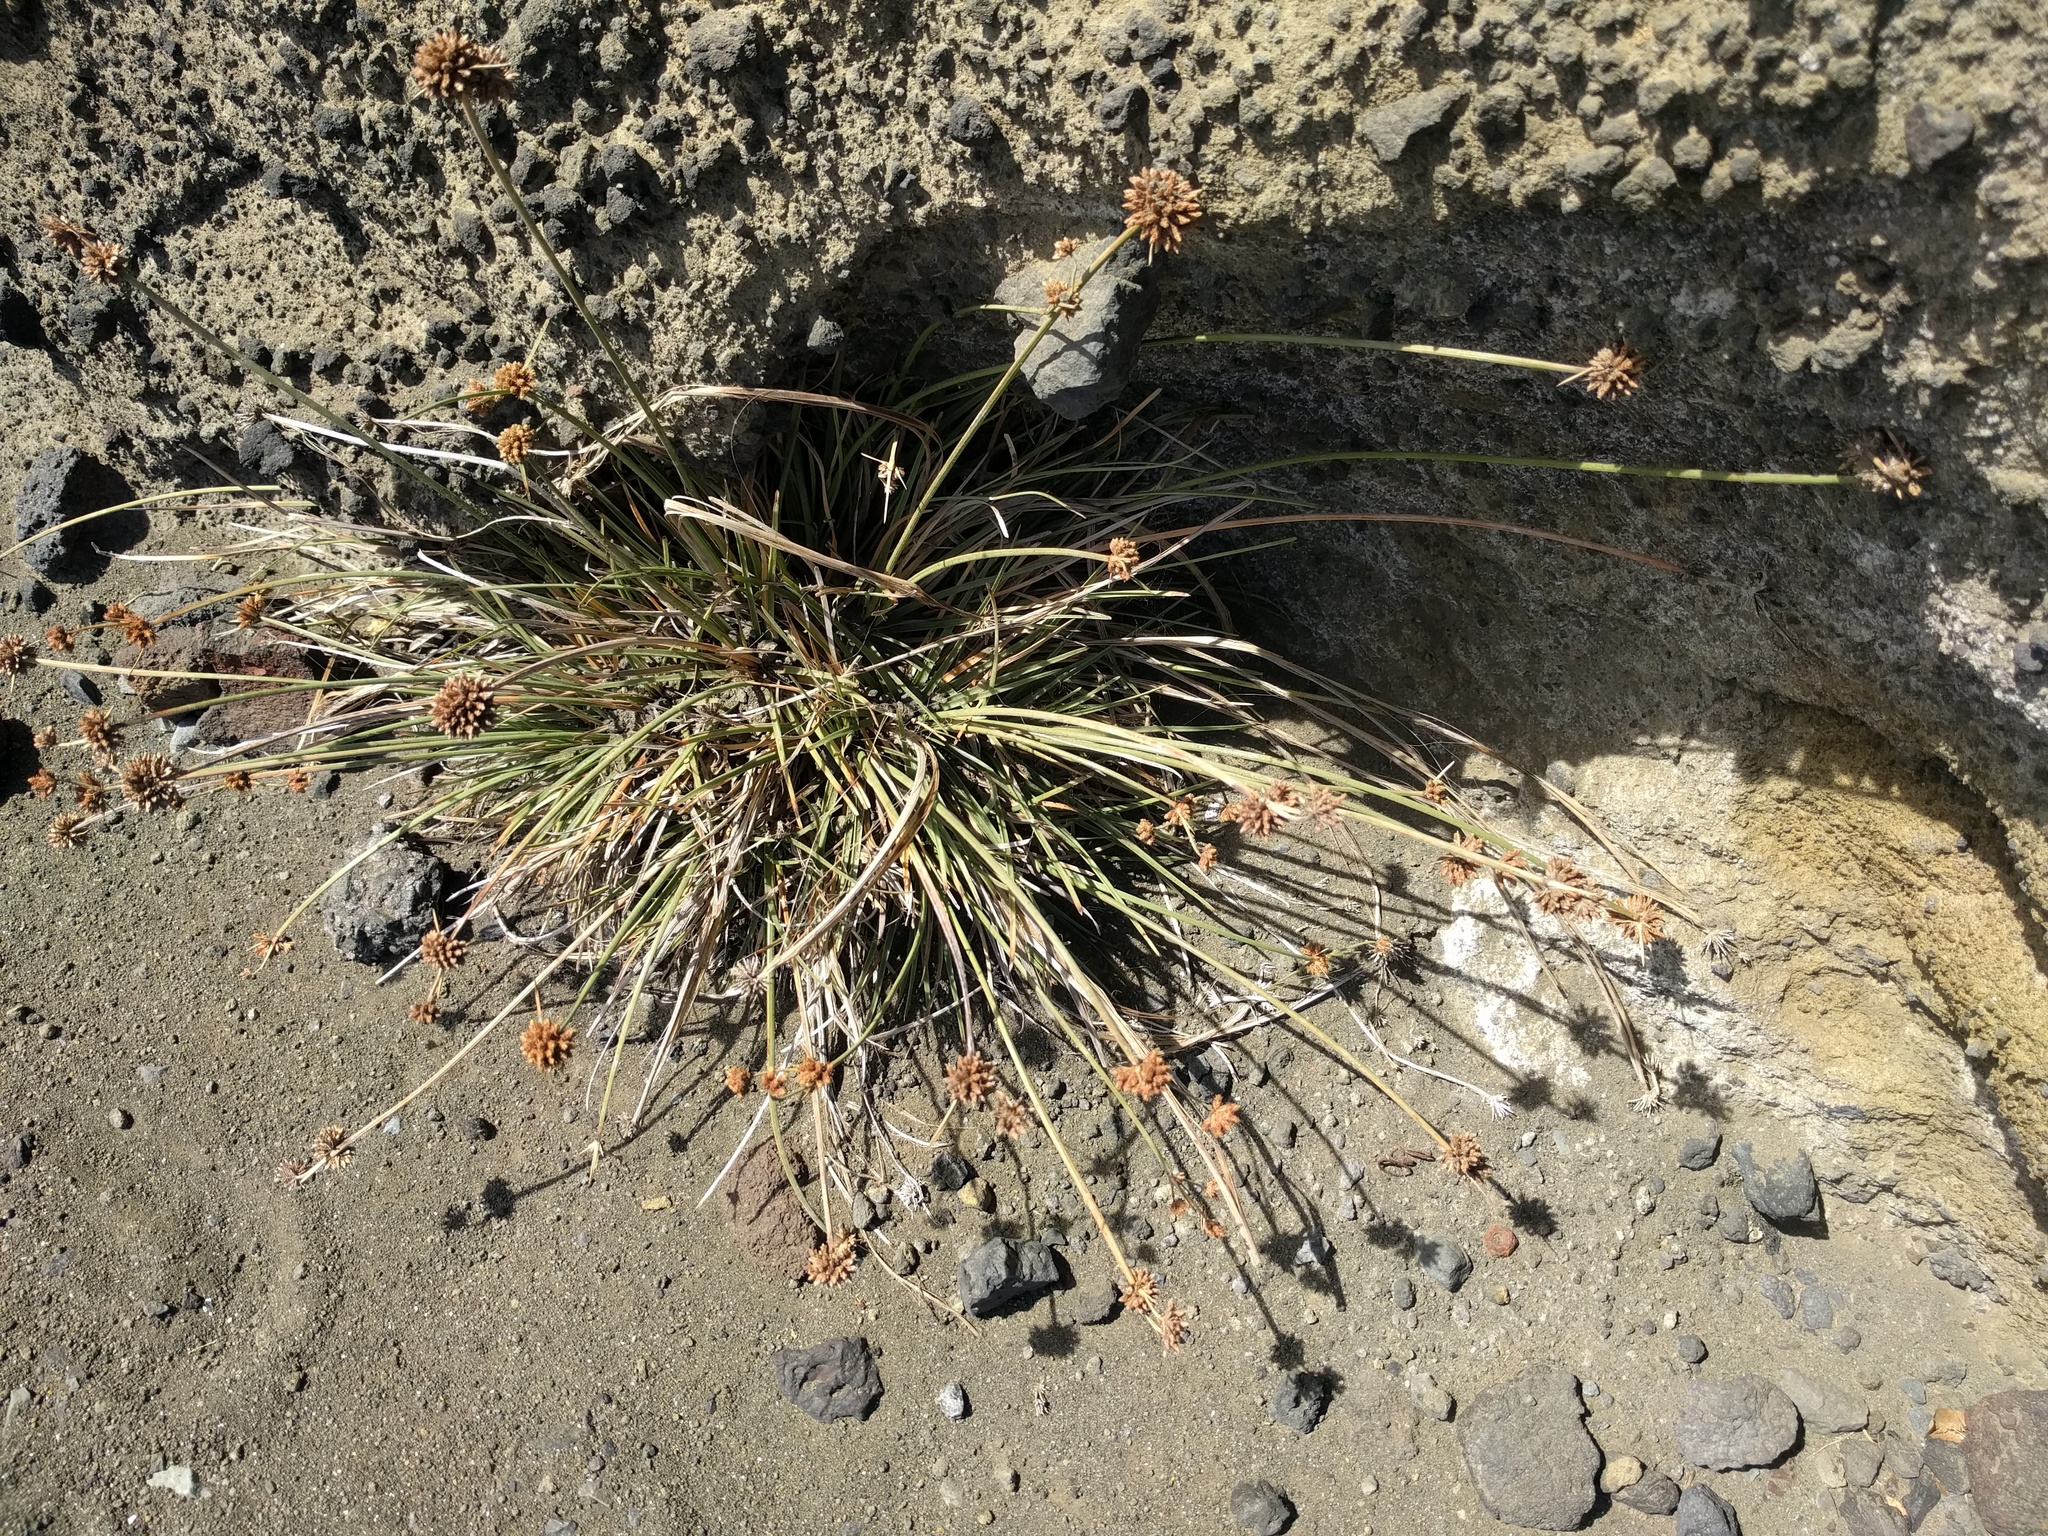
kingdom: Plantae
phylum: Tracheophyta
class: Liliopsida
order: Poales
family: Cyperaceae
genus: Fimbristylis
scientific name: Fimbristylis cymosa
